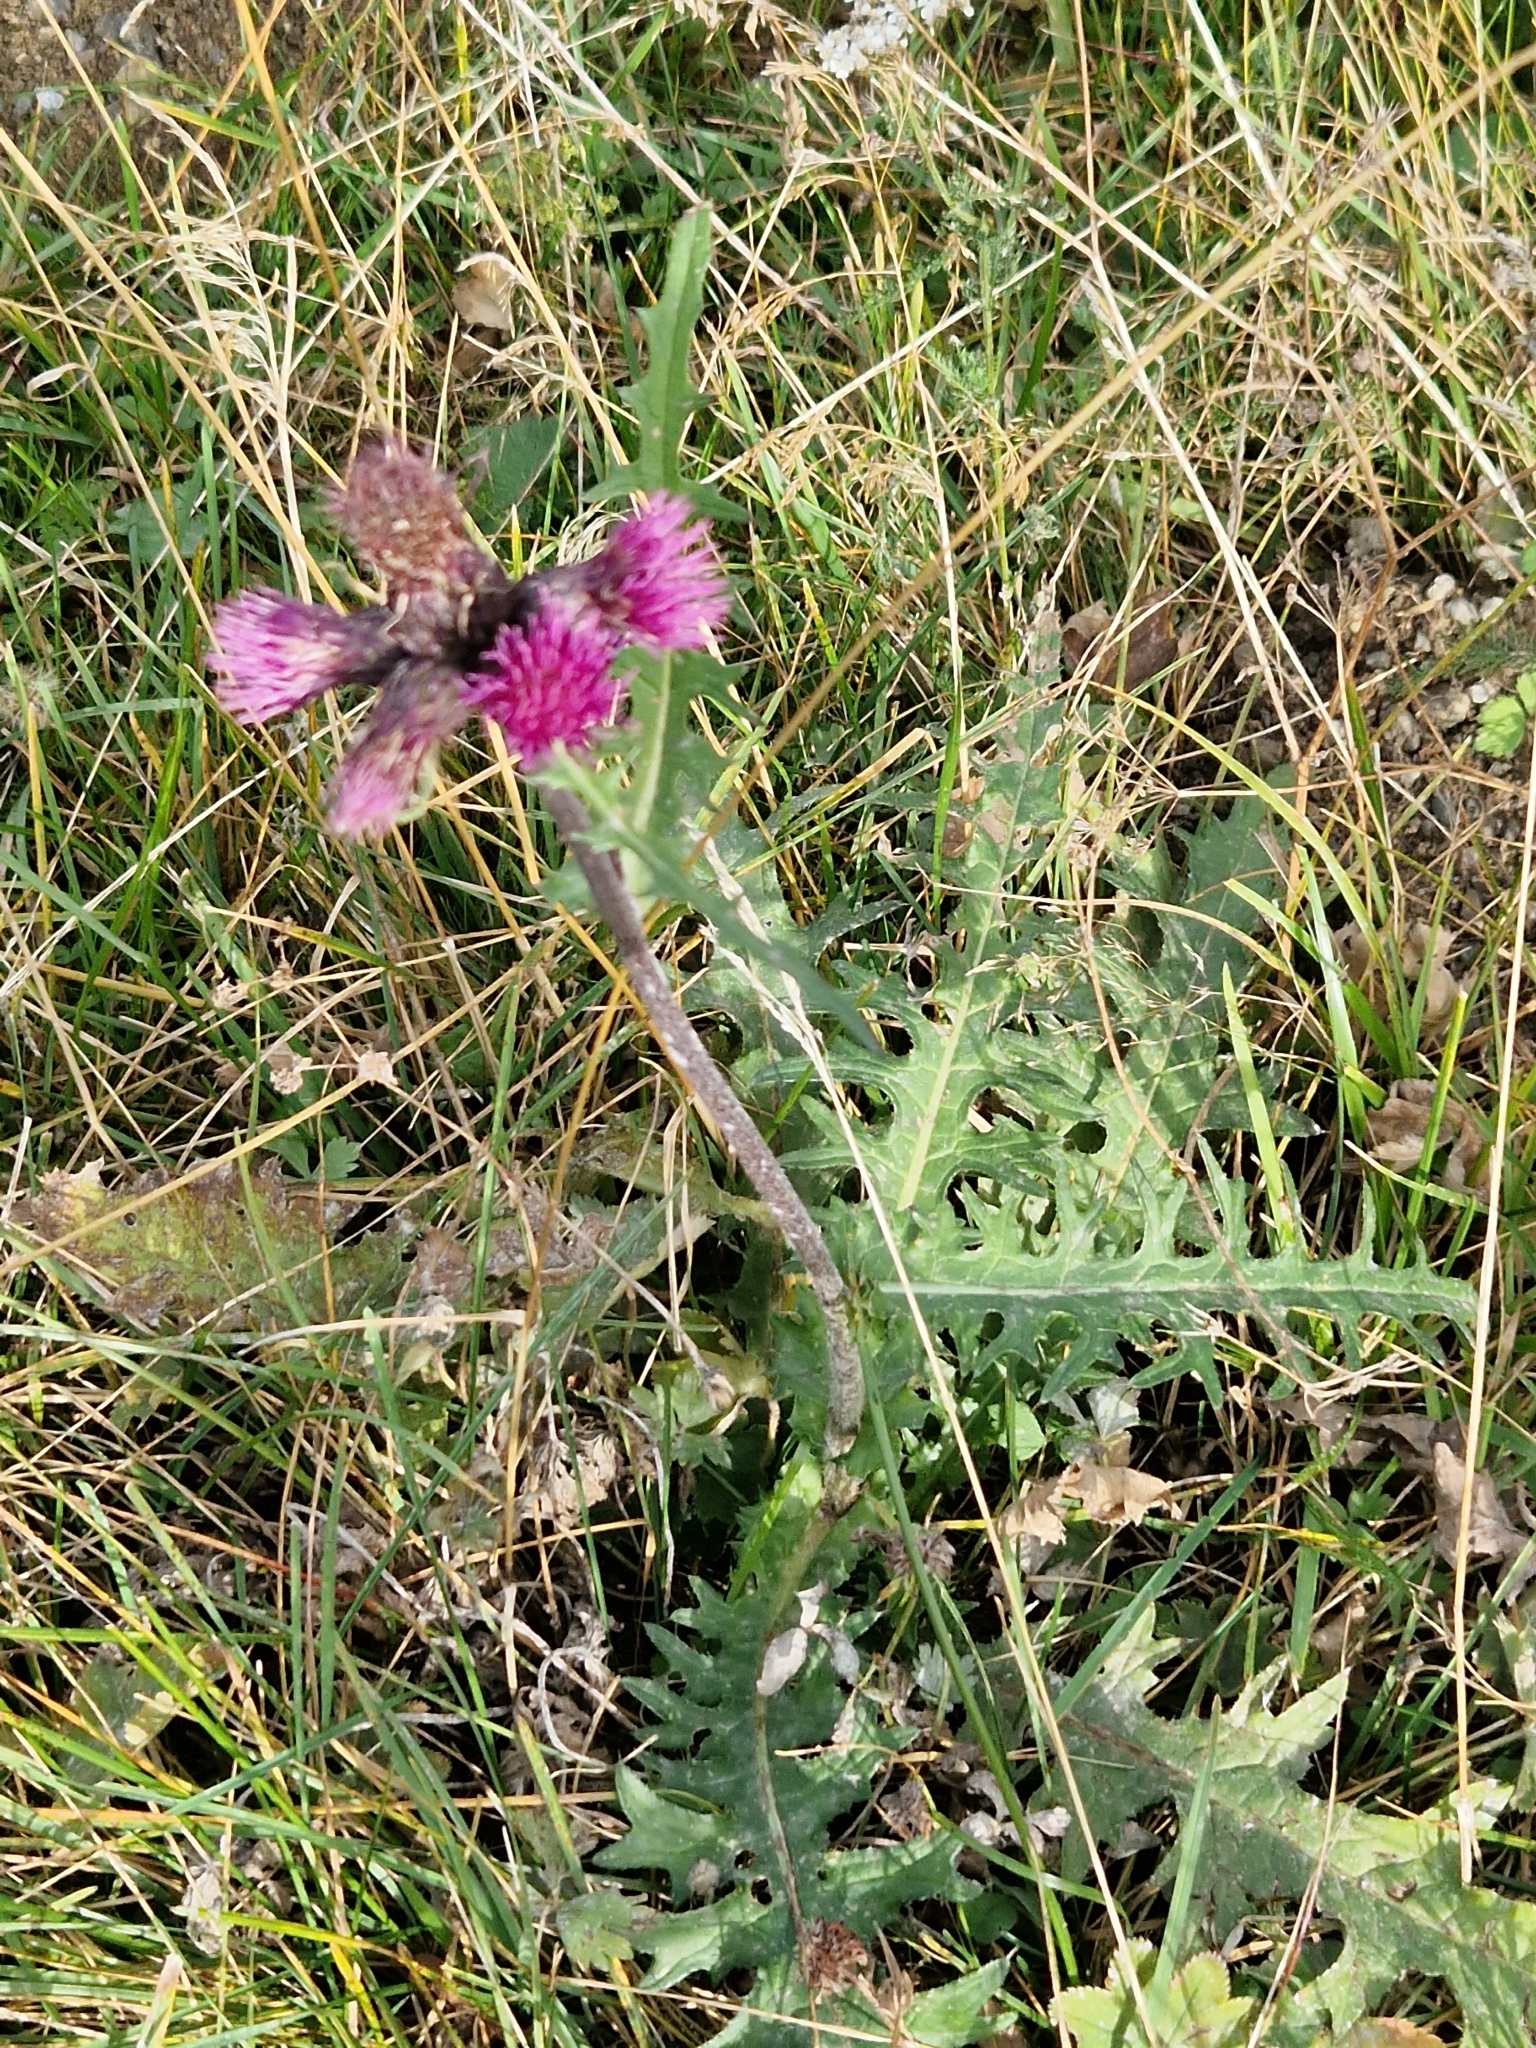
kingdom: Plantae
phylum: Tracheophyta
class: Magnoliopsida
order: Asterales
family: Asteraceae
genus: Cirsium
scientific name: Cirsium palustre
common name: Marsh thistle
